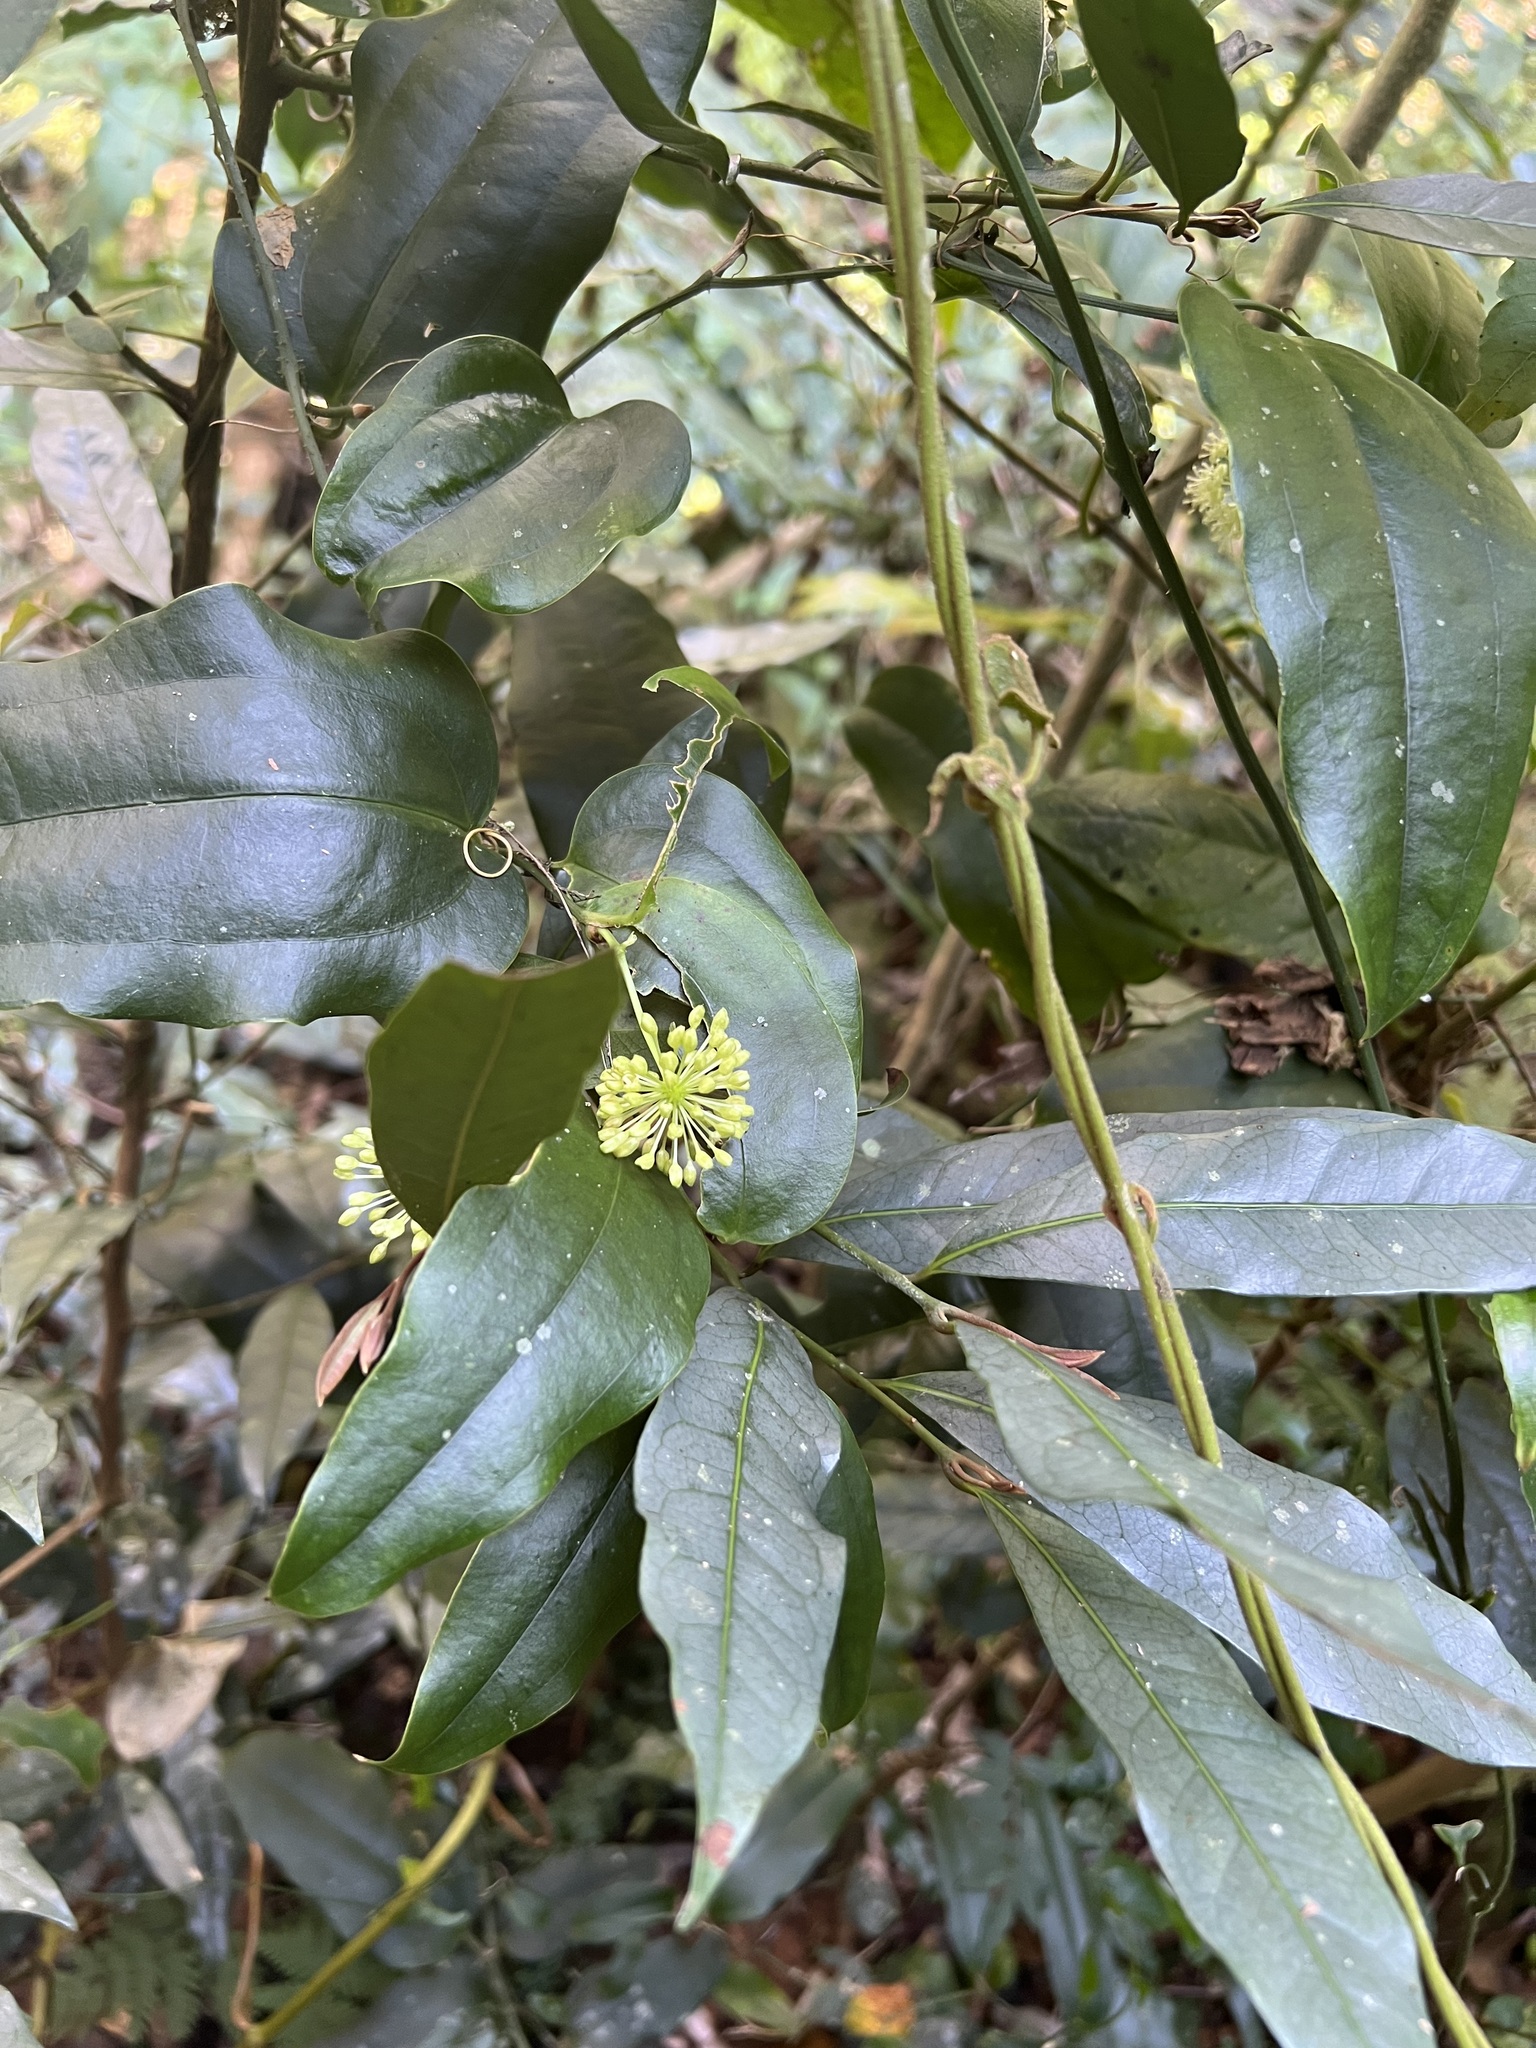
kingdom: Plantae
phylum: Tracheophyta
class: Liliopsida
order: Liliales
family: Smilacaceae
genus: Smilax
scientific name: Smilax australis
